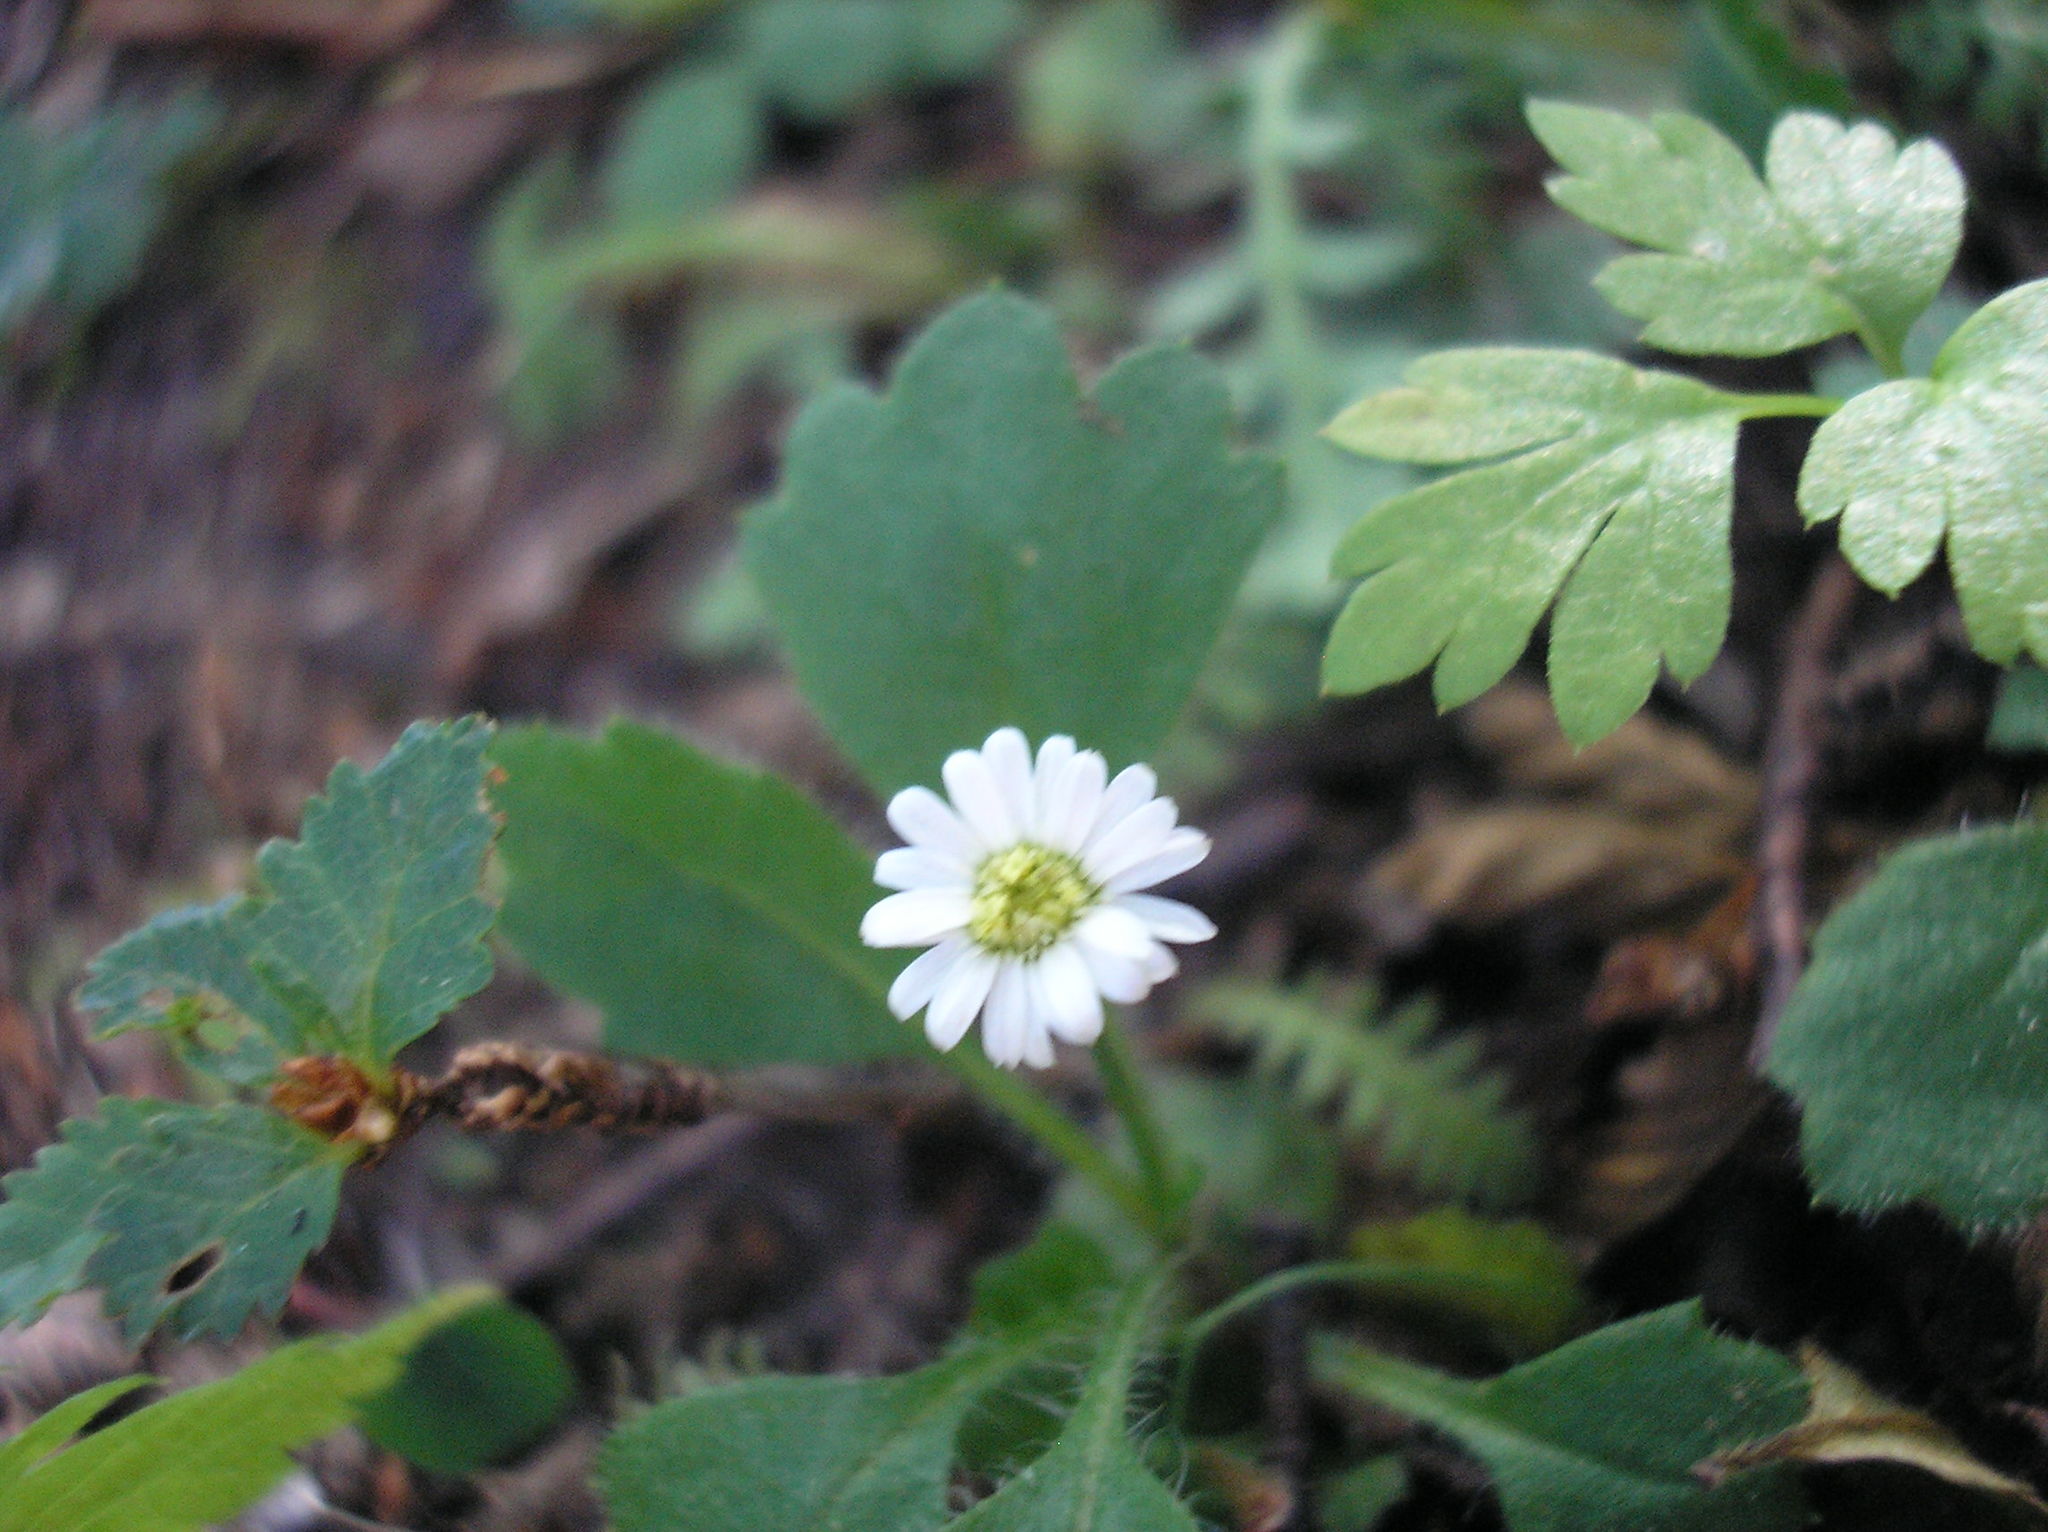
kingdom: Plantae
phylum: Tracheophyta
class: Magnoliopsida
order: Asterales
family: Asteraceae
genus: Lagenophora
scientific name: Lagenophora hariotii
